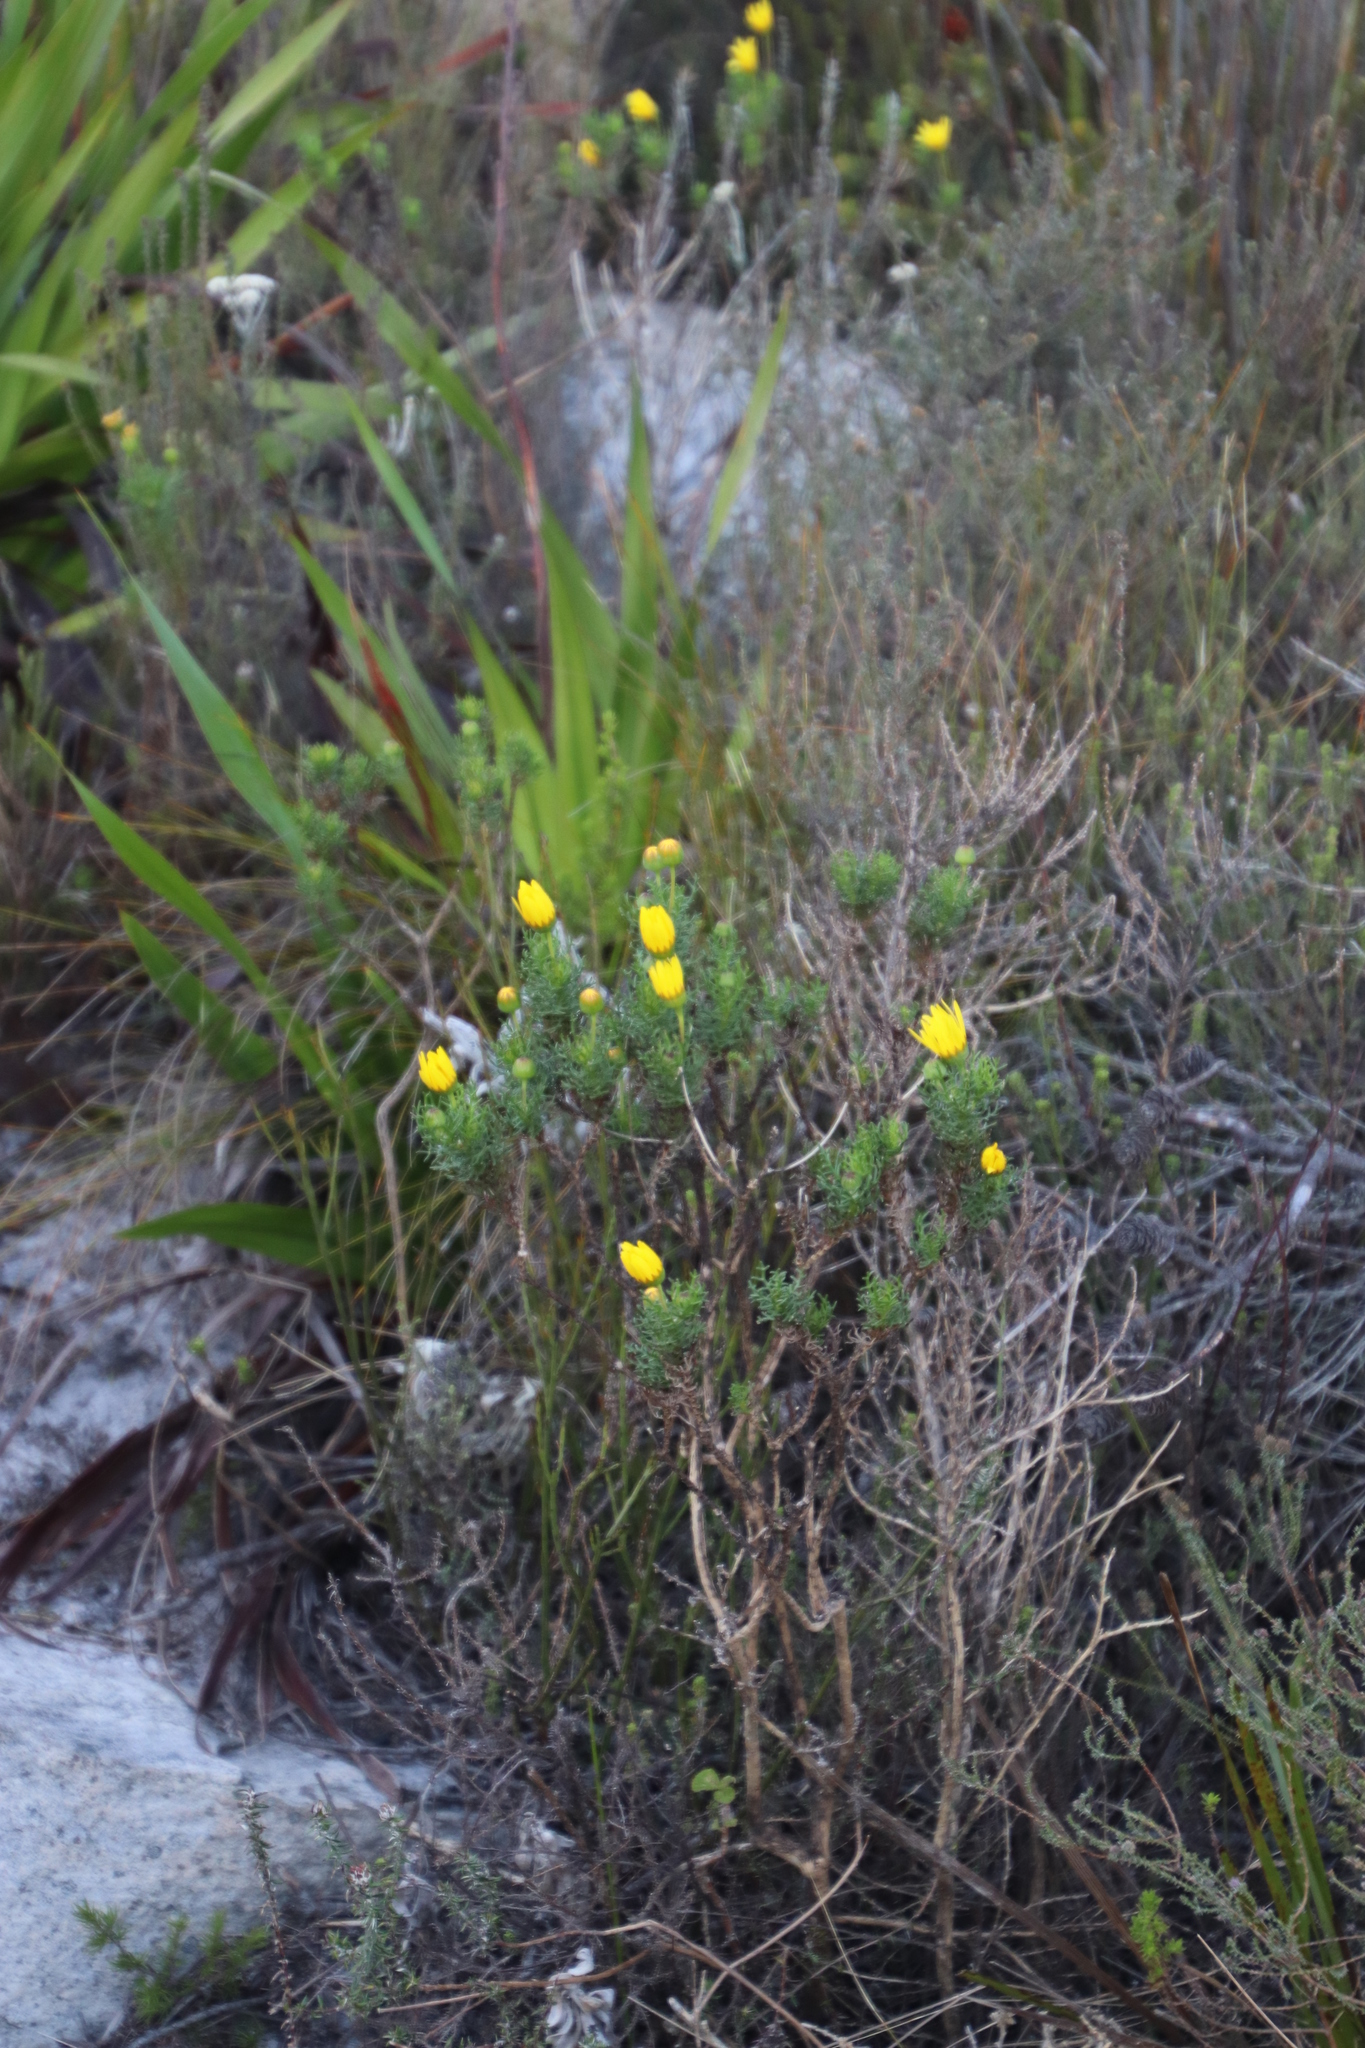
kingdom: Plantae
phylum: Tracheophyta
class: Magnoliopsida
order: Asterales
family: Asteraceae
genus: Euryops
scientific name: Euryops abrotanifolius
